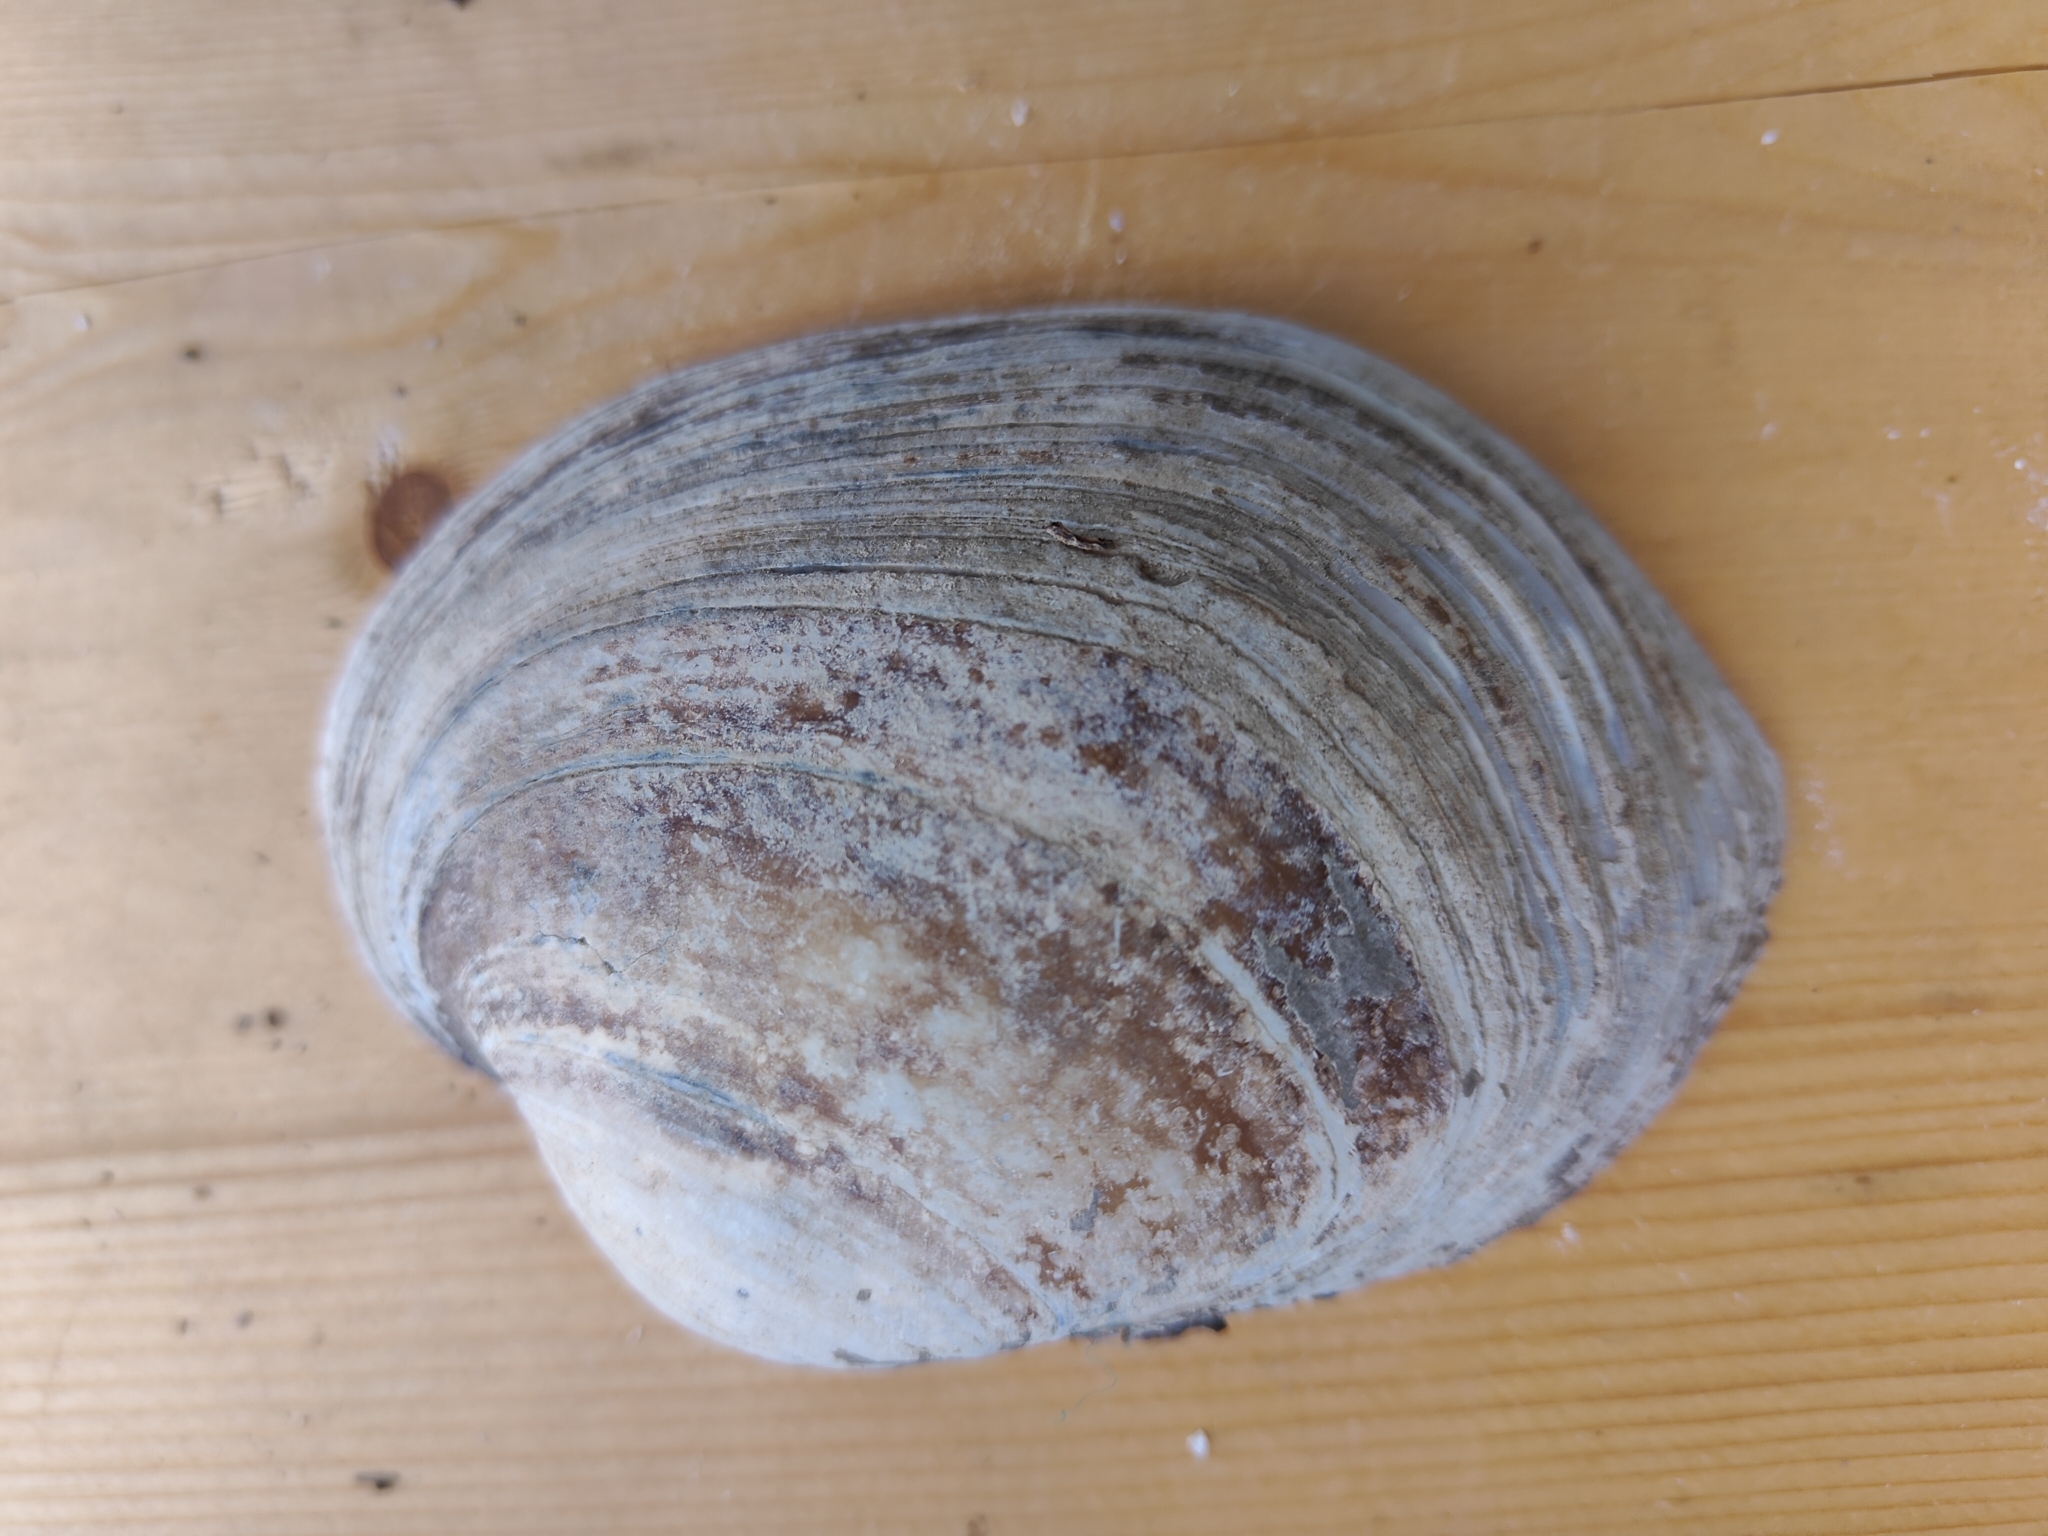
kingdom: Animalia
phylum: Mollusca
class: Bivalvia
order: Unionida
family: Unionidae
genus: Lampsilis
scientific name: Lampsilis cardium
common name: Plain pocketbook
